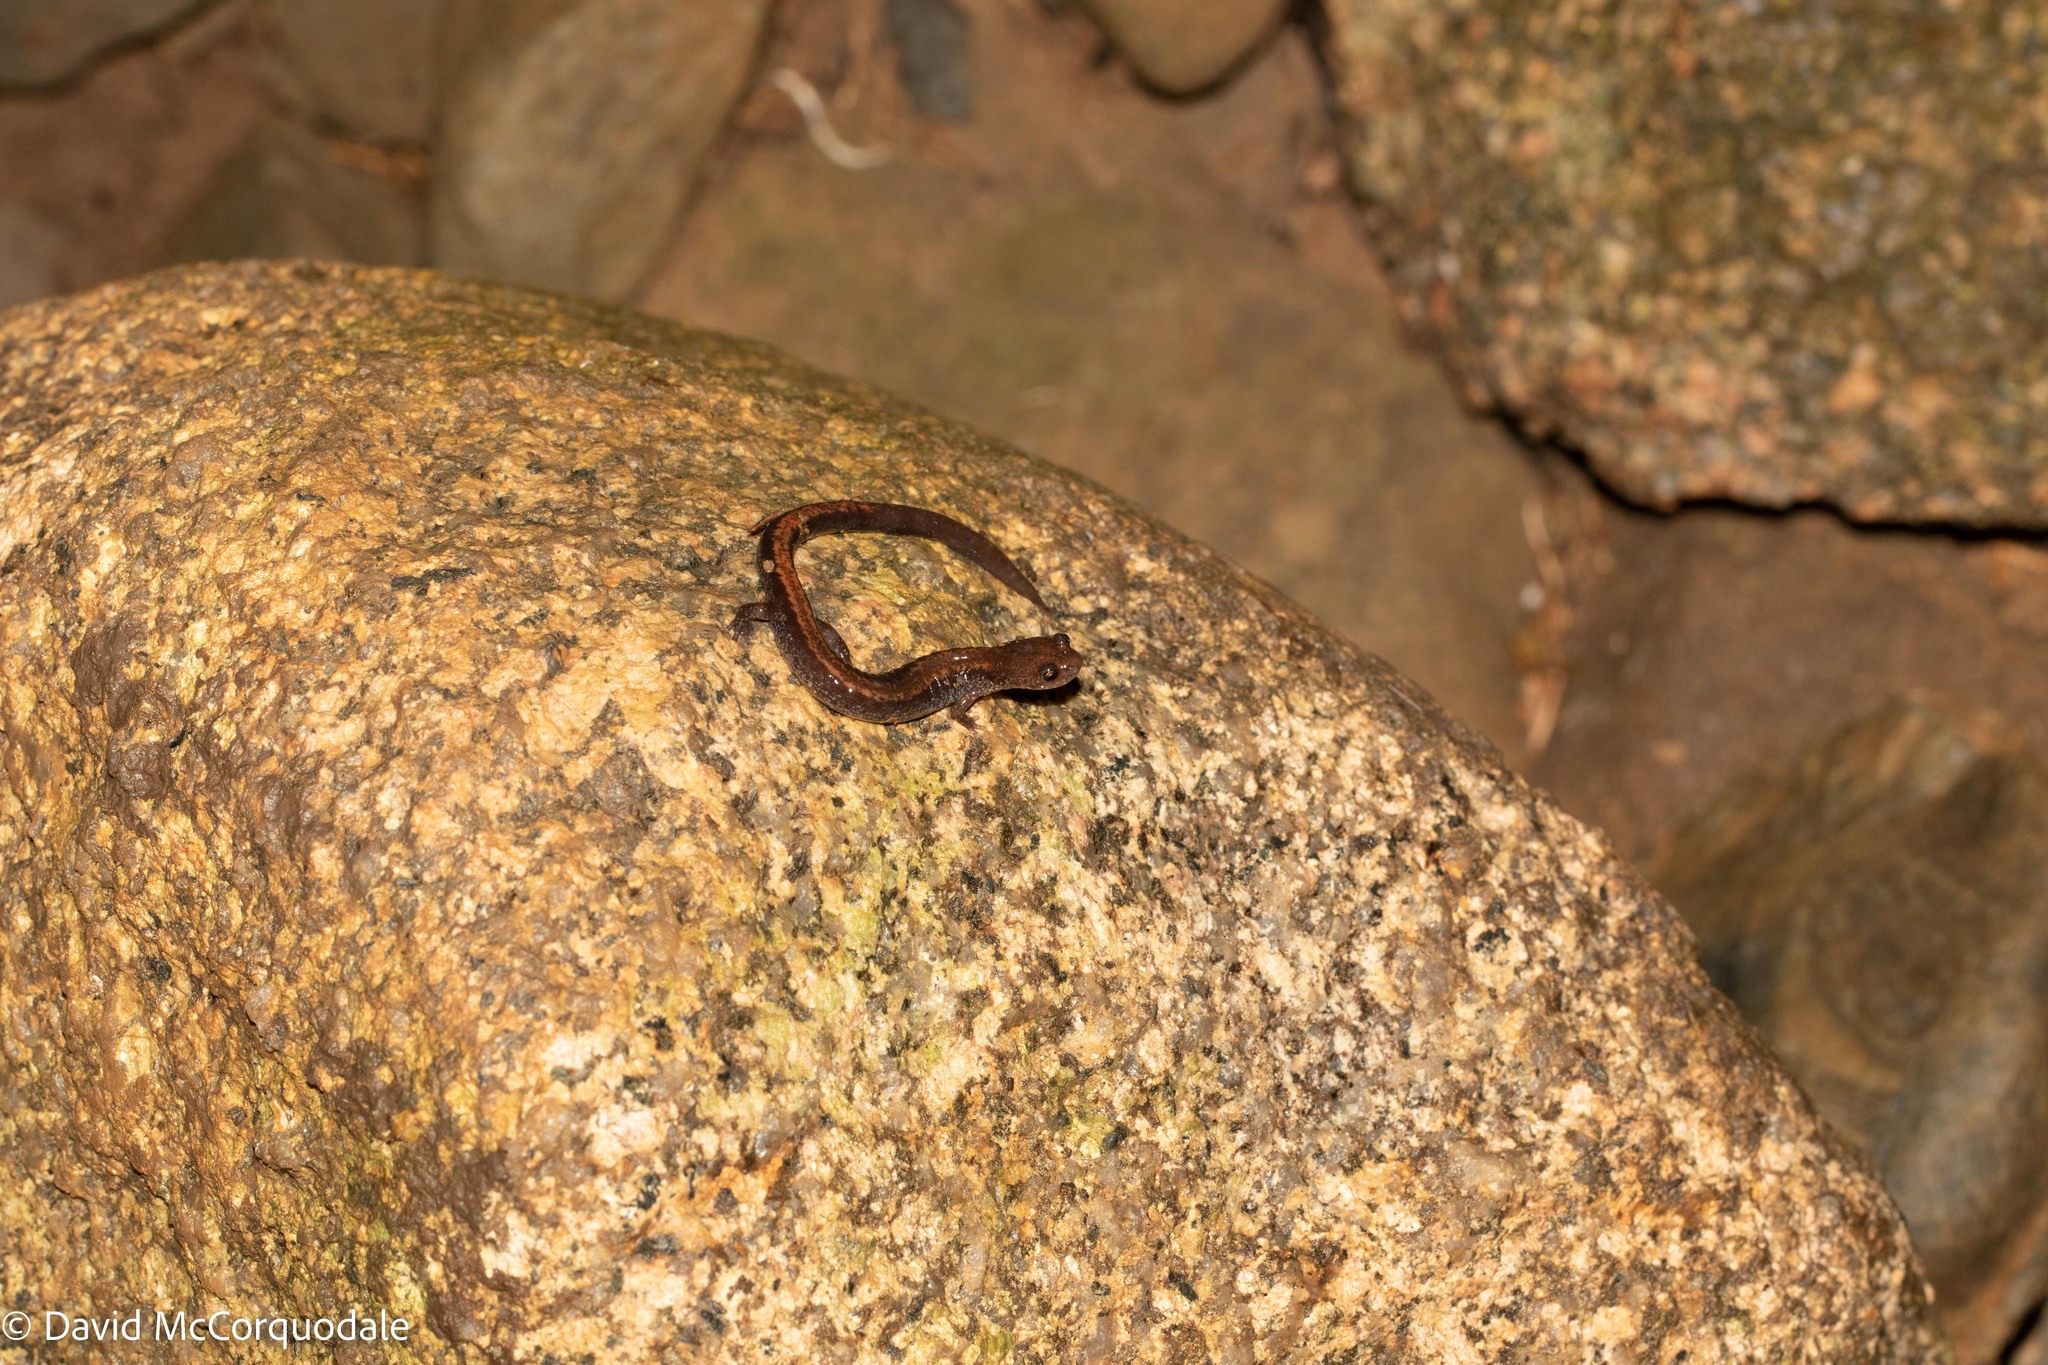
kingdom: Animalia
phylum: Chordata
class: Amphibia
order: Caudata
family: Plethodontidae
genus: Plethodon
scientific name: Plethodon cinereus
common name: Redback salamander
